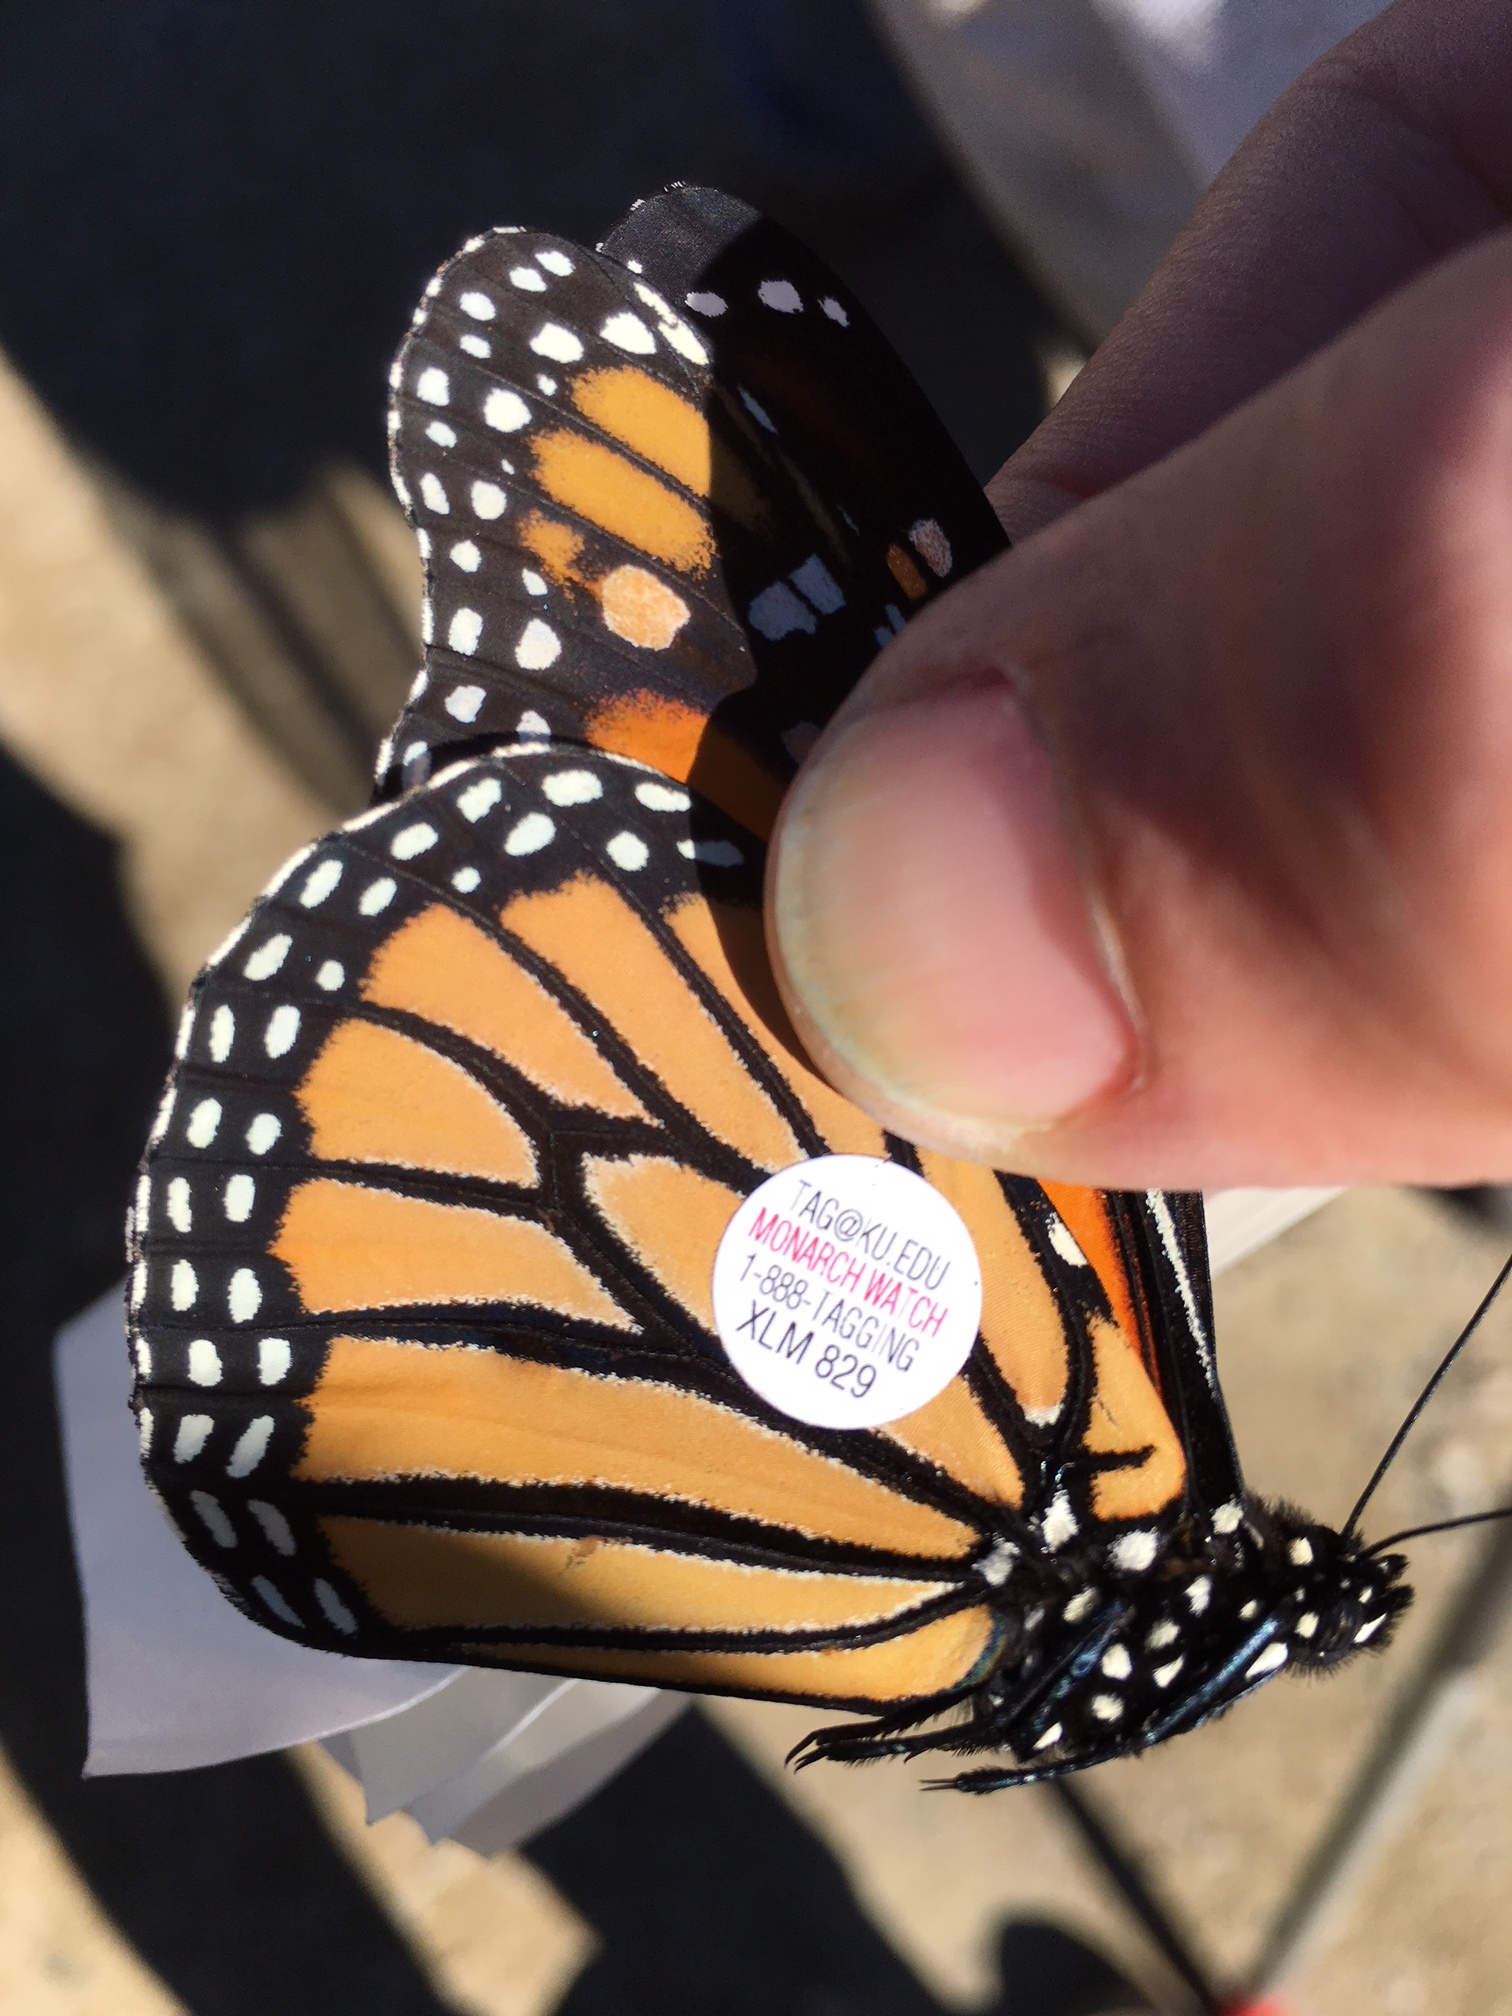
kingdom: Animalia
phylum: Arthropoda
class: Insecta
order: Lepidoptera
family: Nymphalidae
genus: Danaus
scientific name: Danaus plexippus
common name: Monarch
